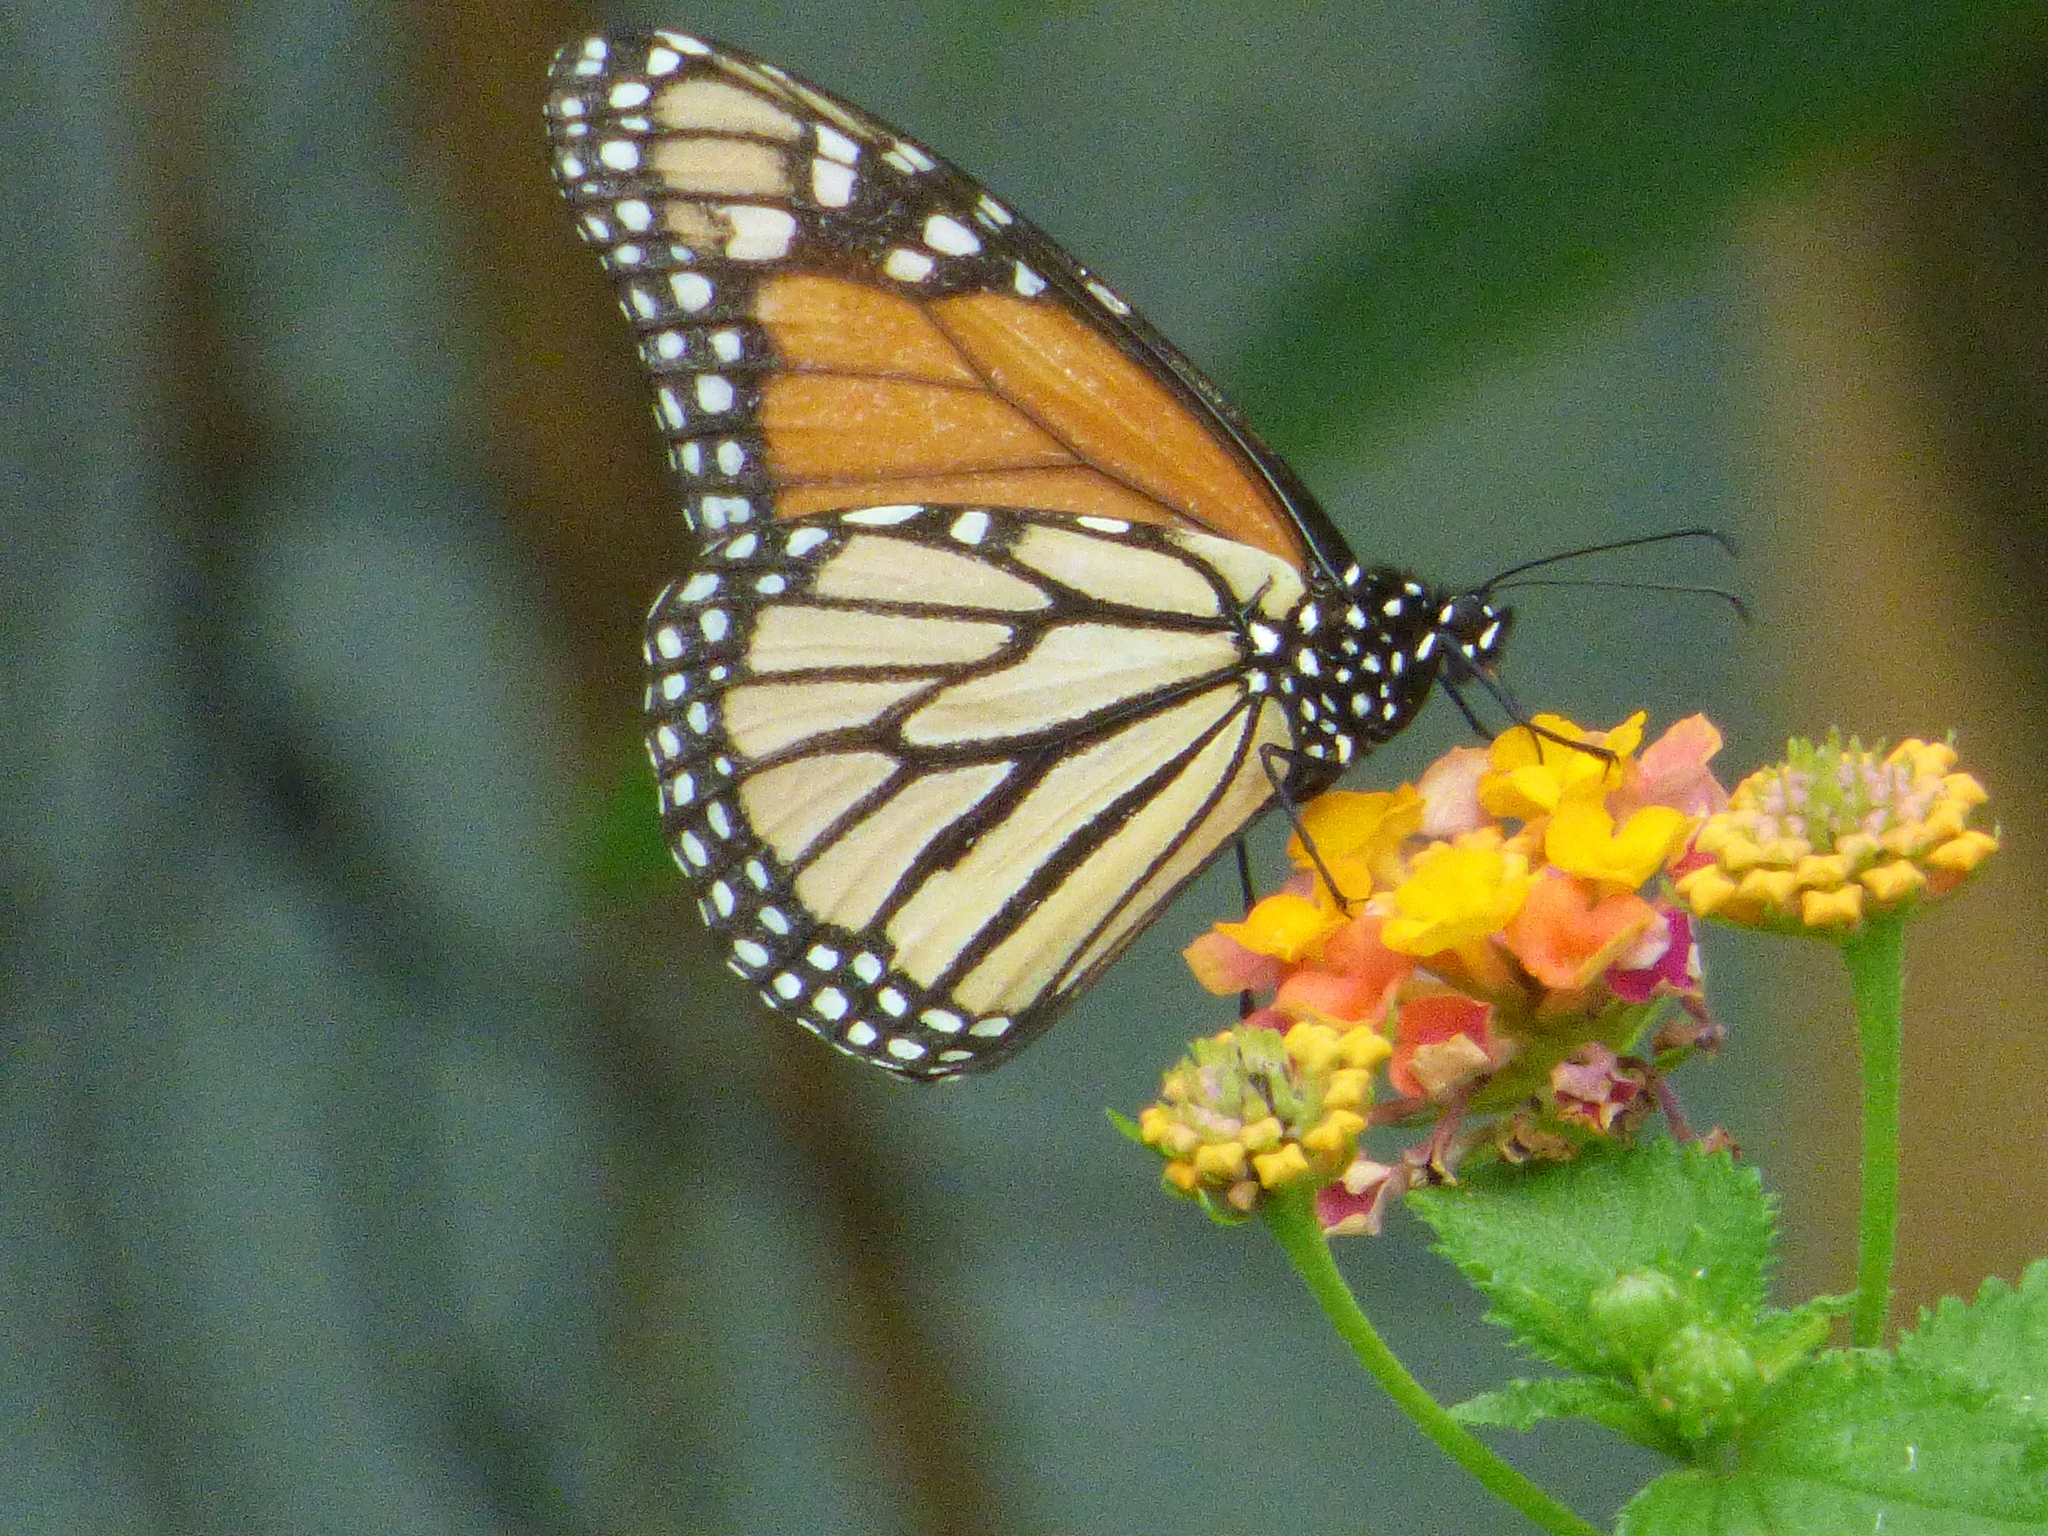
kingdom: Animalia
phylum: Arthropoda
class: Insecta
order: Lepidoptera
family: Nymphalidae
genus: Danaus
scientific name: Danaus plexippus
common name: Monarch
